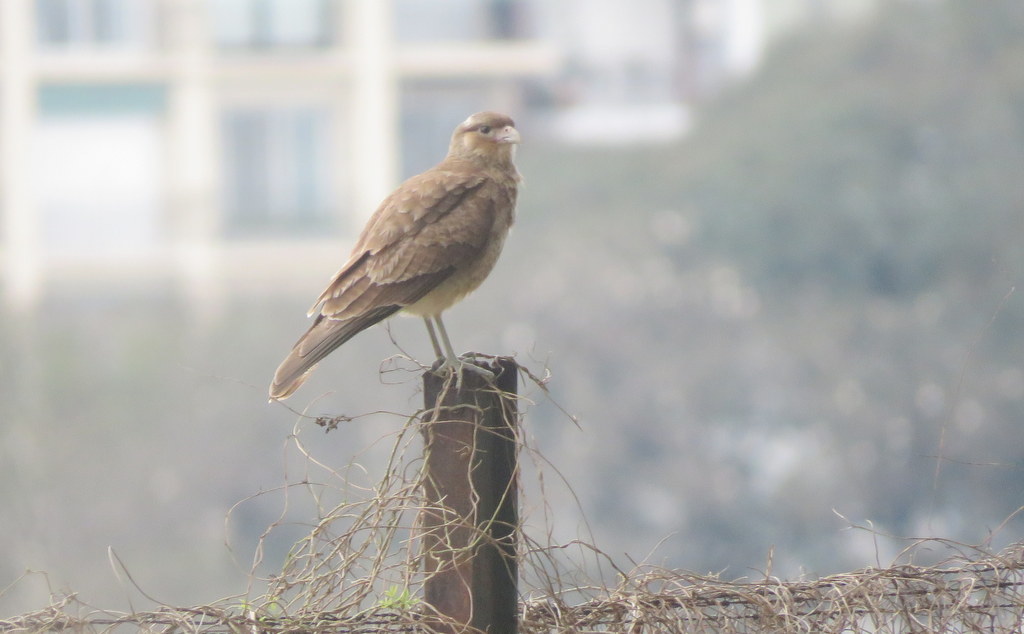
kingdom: Animalia
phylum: Chordata
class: Aves
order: Falconiformes
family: Falconidae
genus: Daptrius
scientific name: Daptrius
